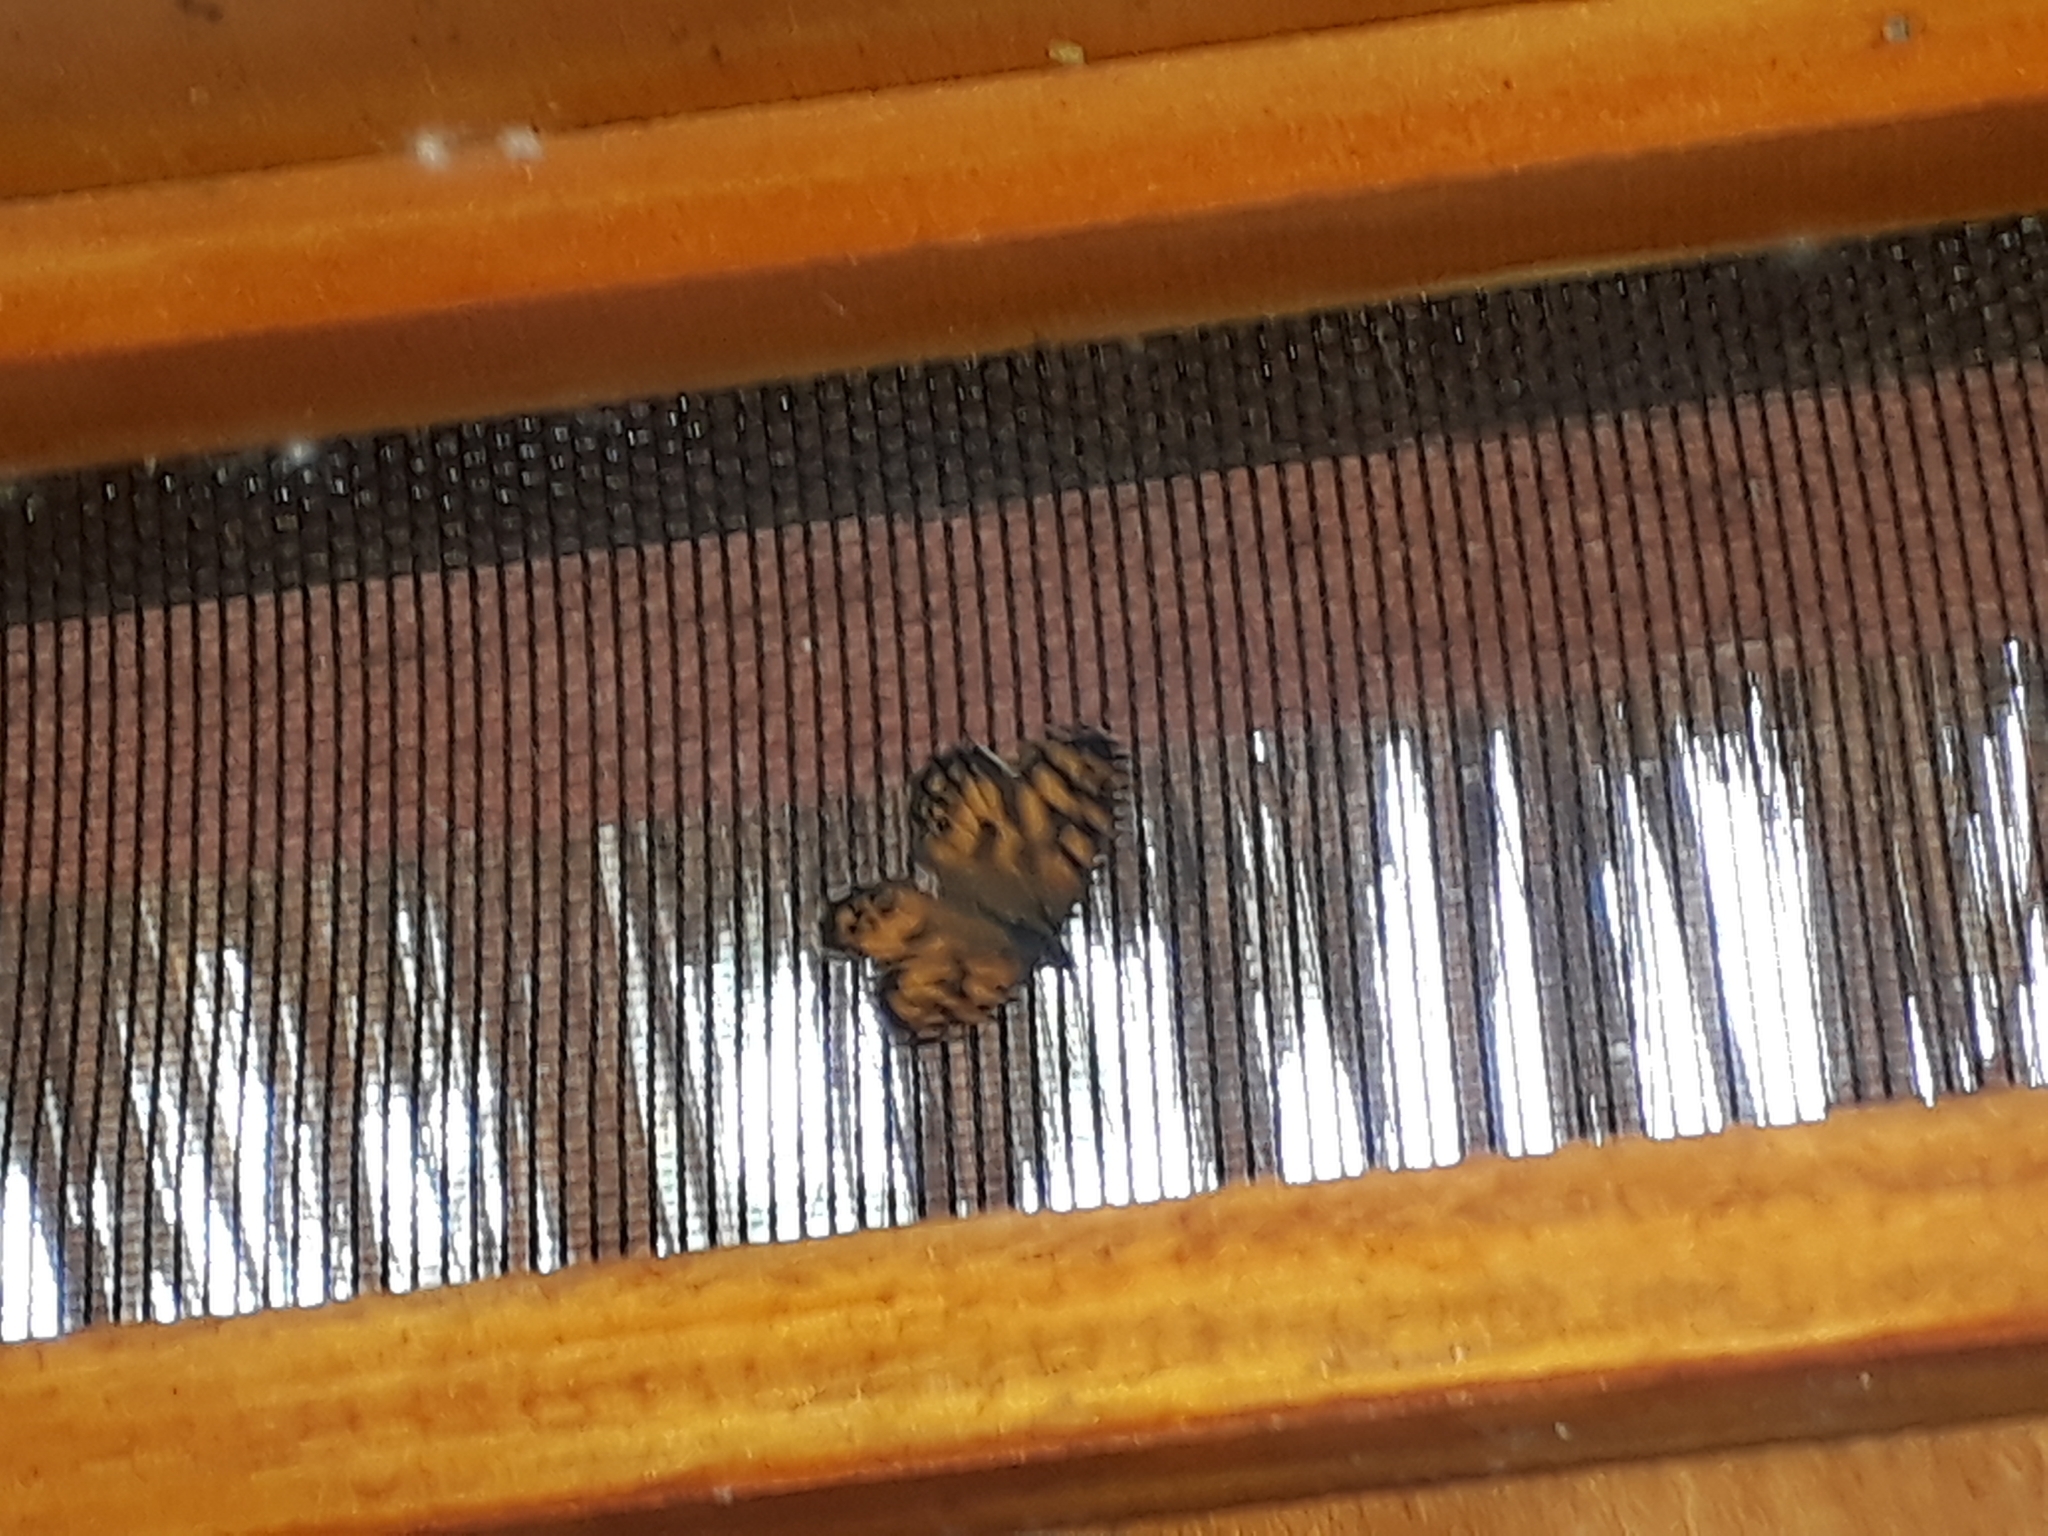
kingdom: Animalia
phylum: Arthropoda
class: Insecta
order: Lepidoptera
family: Nymphalidae
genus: Geitoneura
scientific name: Geitoneura klugii
